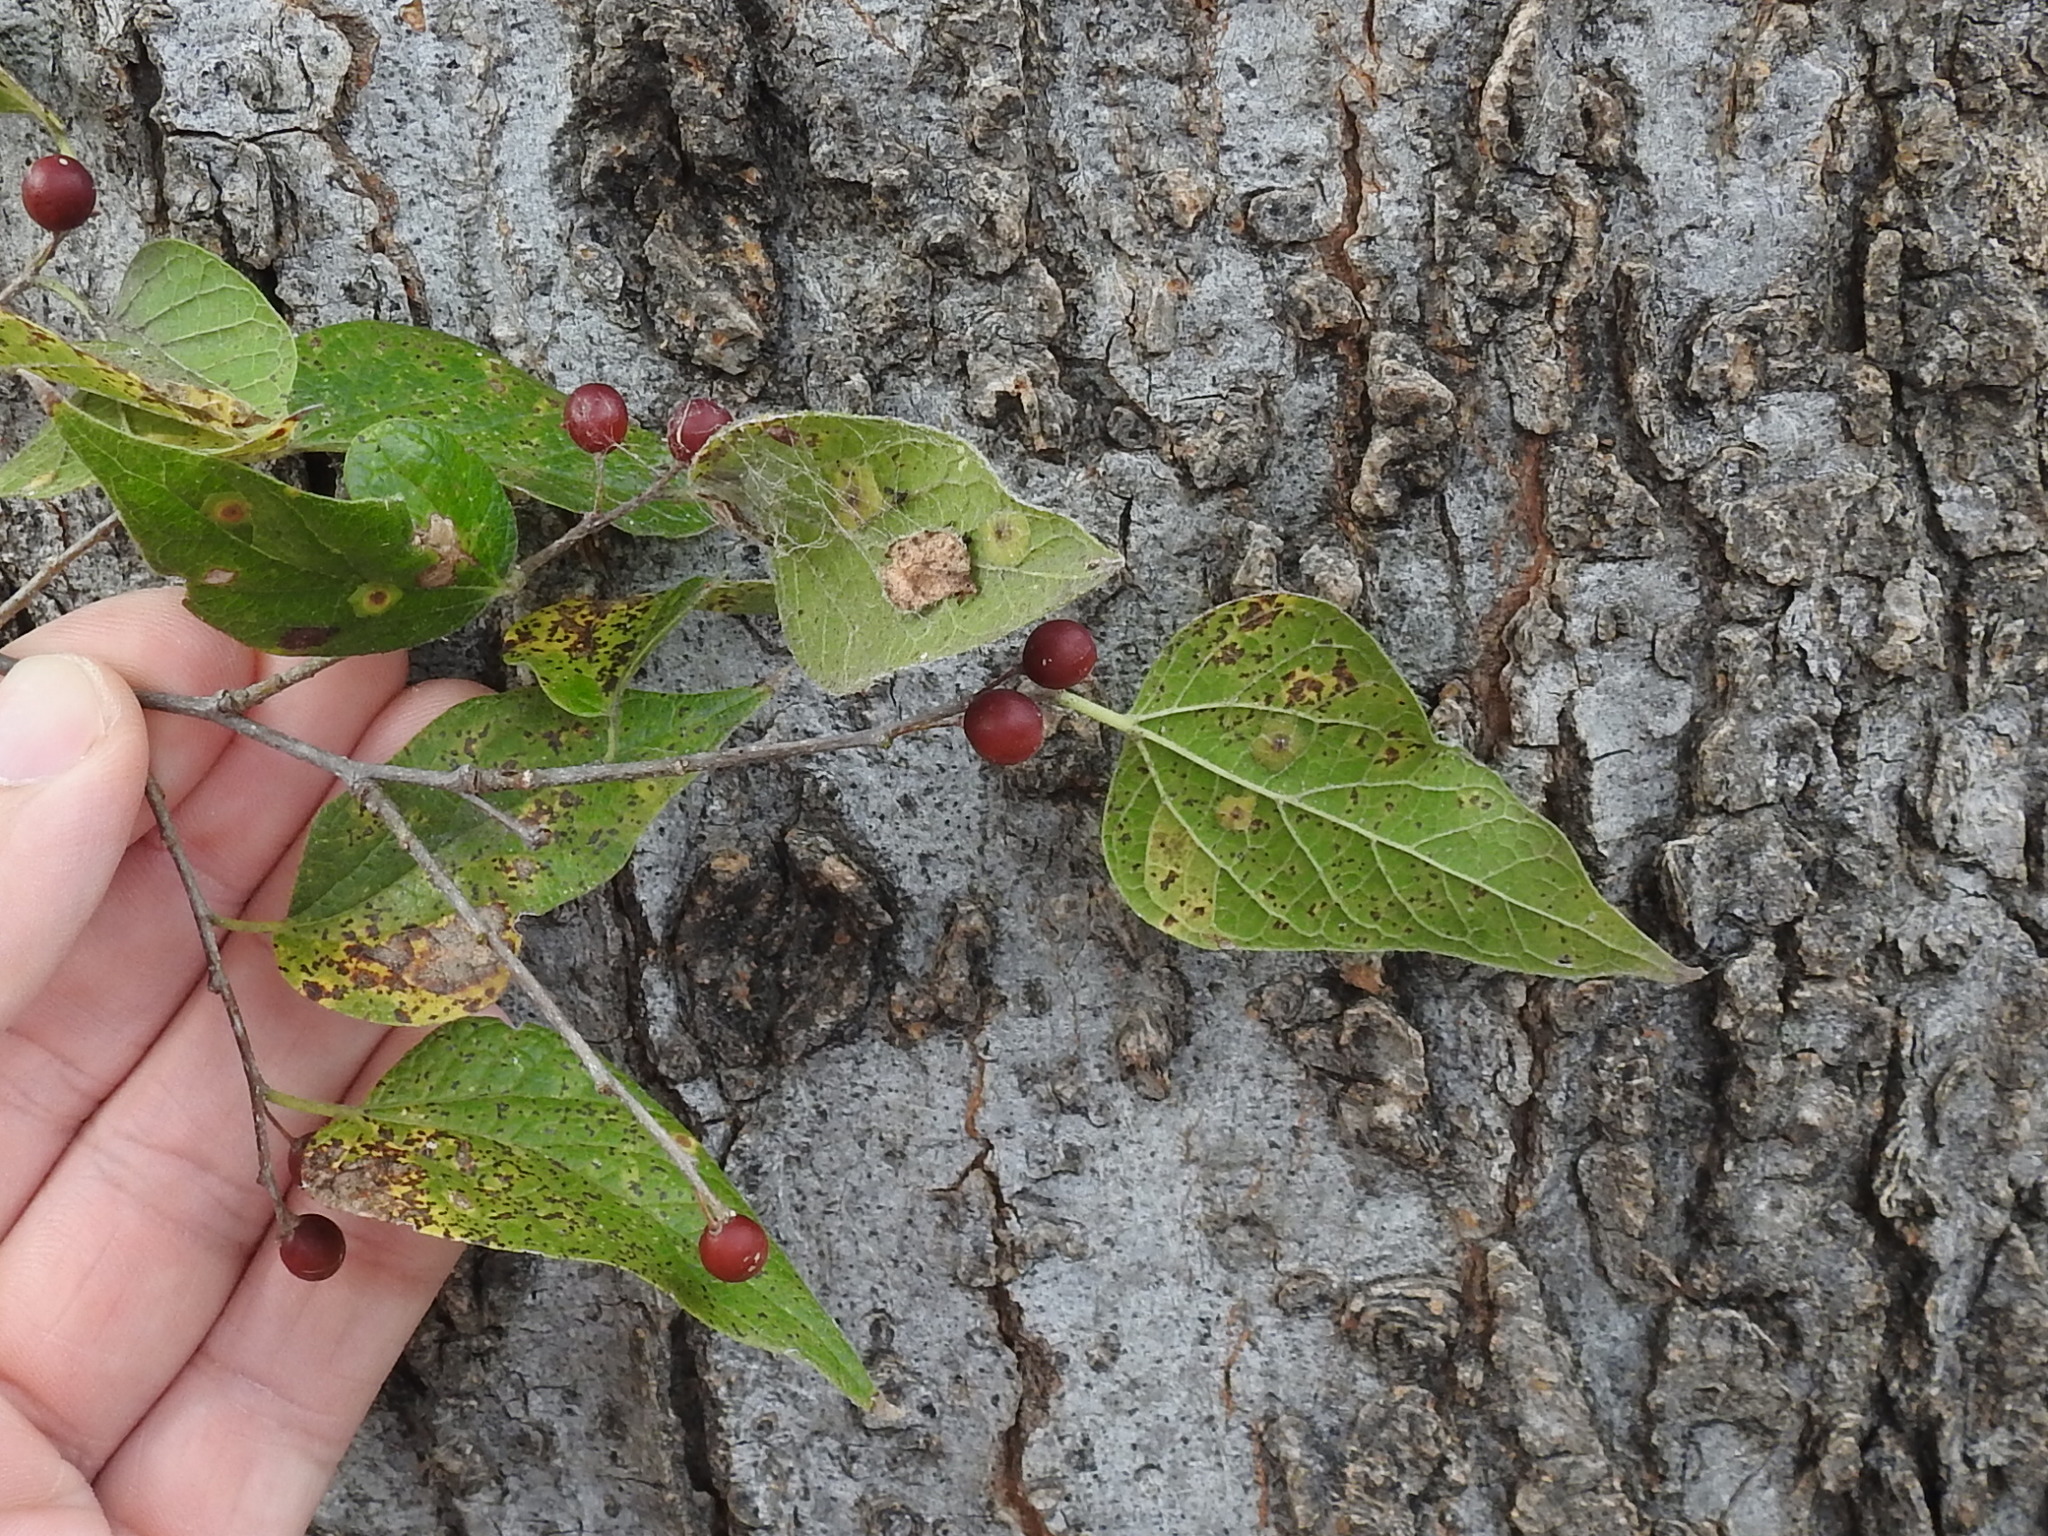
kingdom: Plantae
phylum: Tracheophyta
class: Magnoliopsida
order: Rosales
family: Cannabaceae
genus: Celtis
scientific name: Celtis laevigata
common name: Sugarberry
